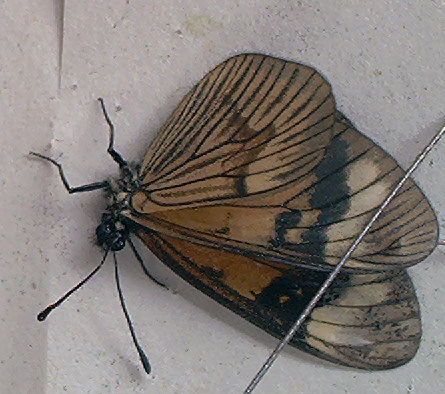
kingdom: Animalia
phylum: Arthropoda
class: Insecta
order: Lepidoptera
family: Nymphalidae
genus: Actinote
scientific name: Actinote anteas
